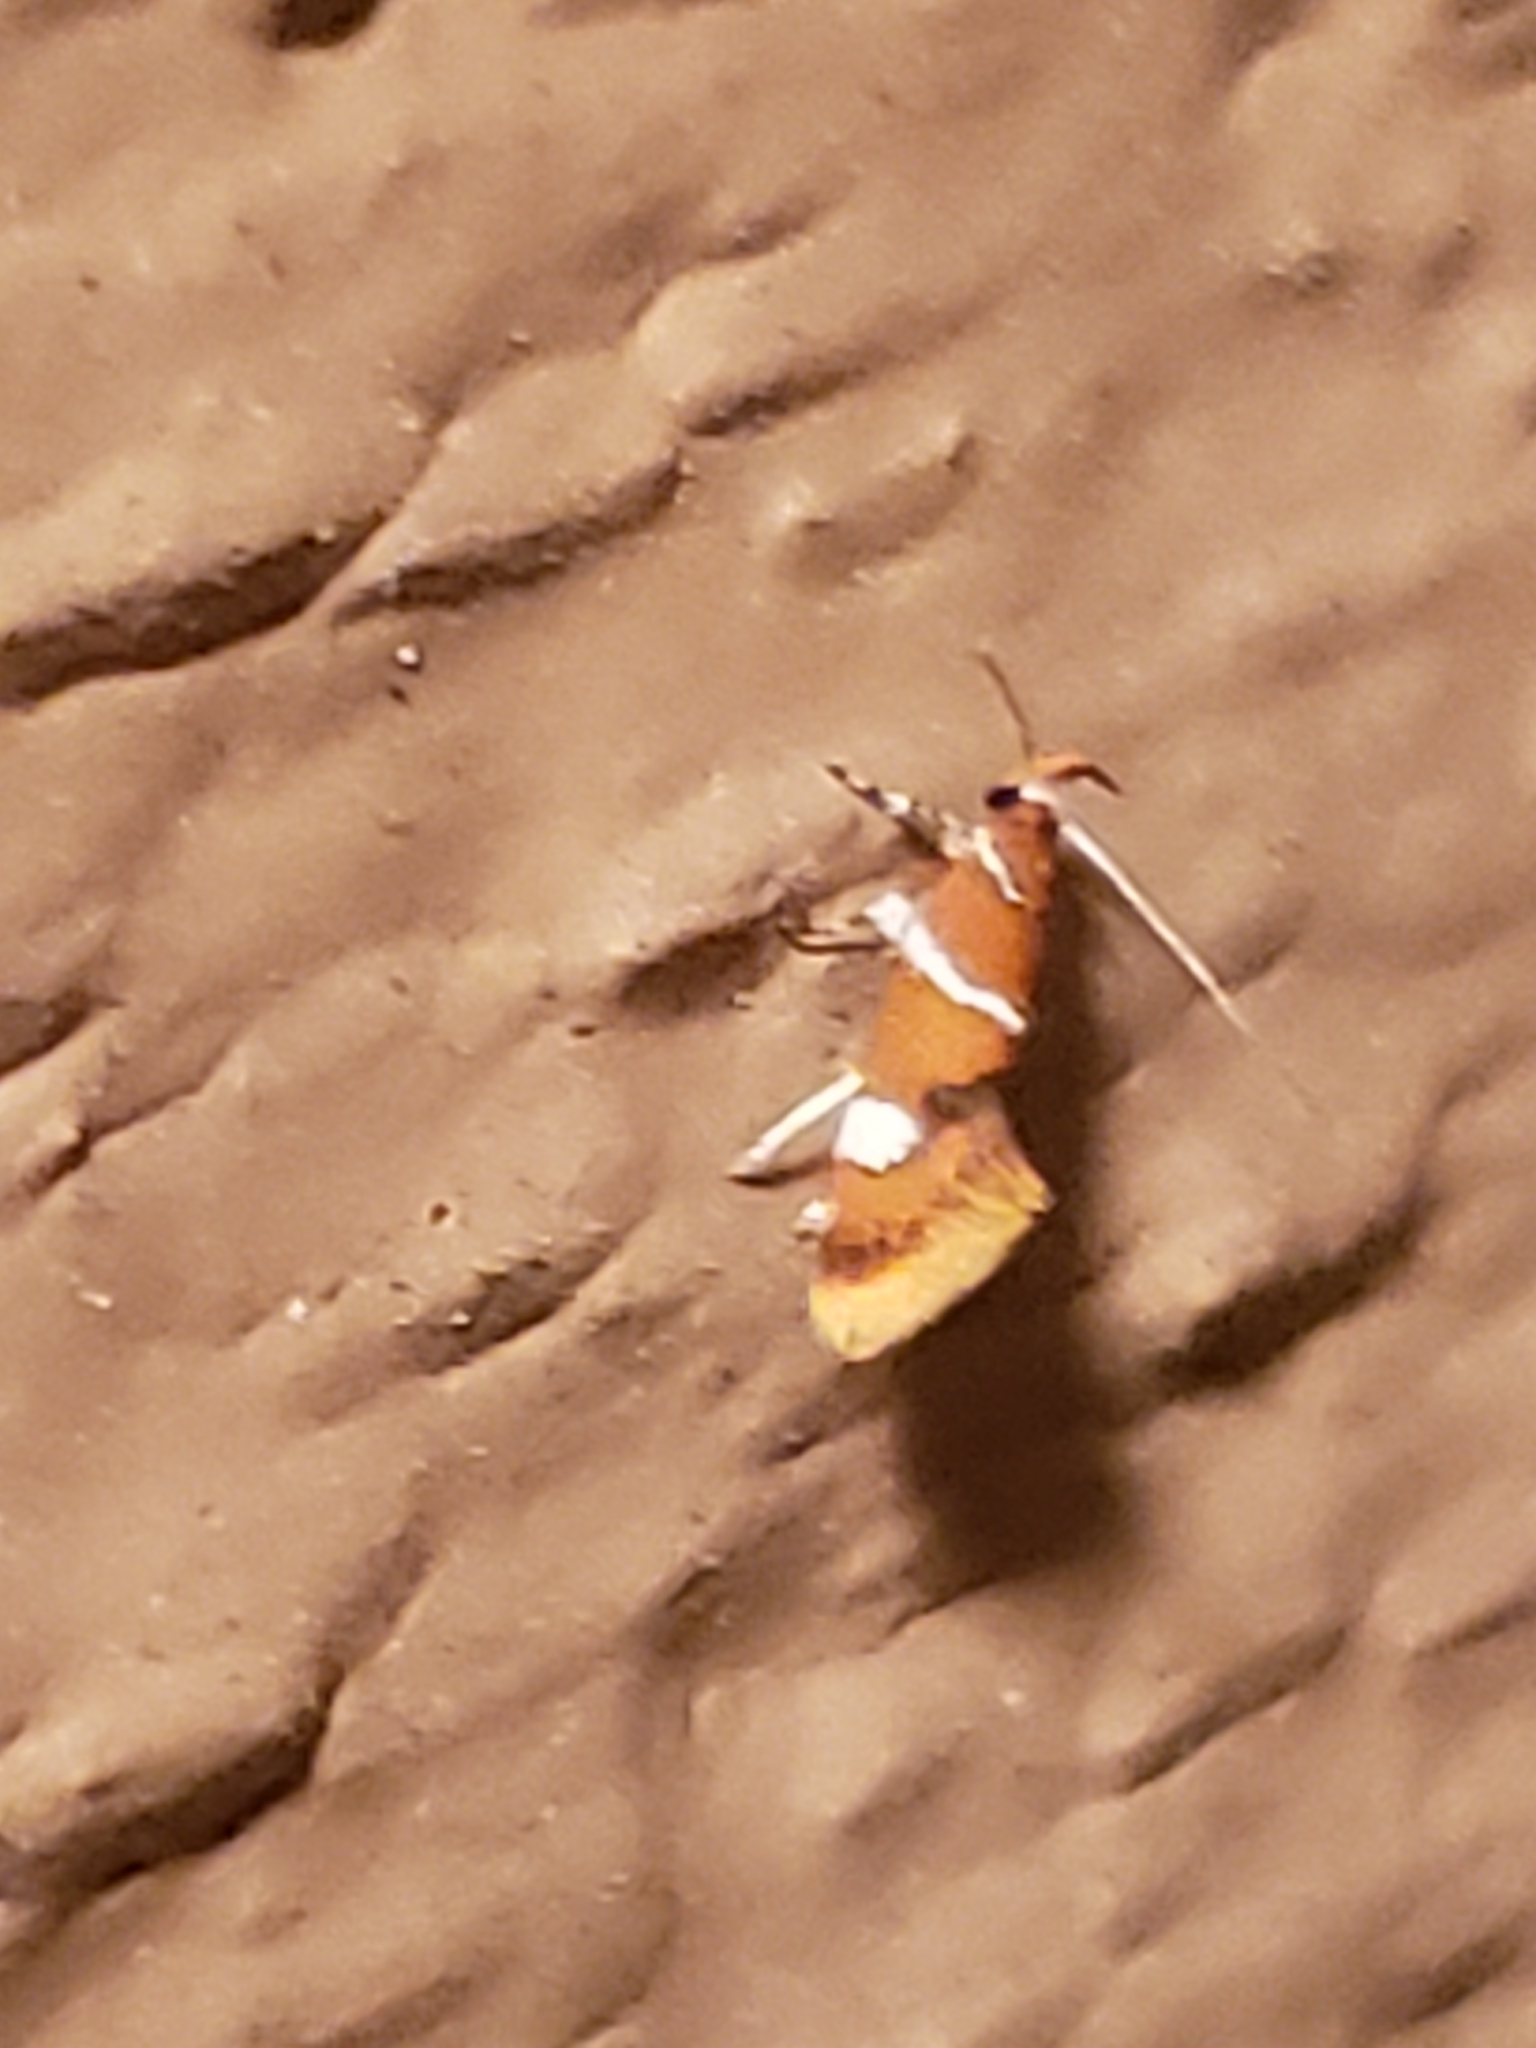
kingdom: Animalia
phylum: Arthropoda
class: Insecta
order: Lepidoptera
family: Oecophoridae
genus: Promalactis
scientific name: Promalactis suzukiella
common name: Moth
